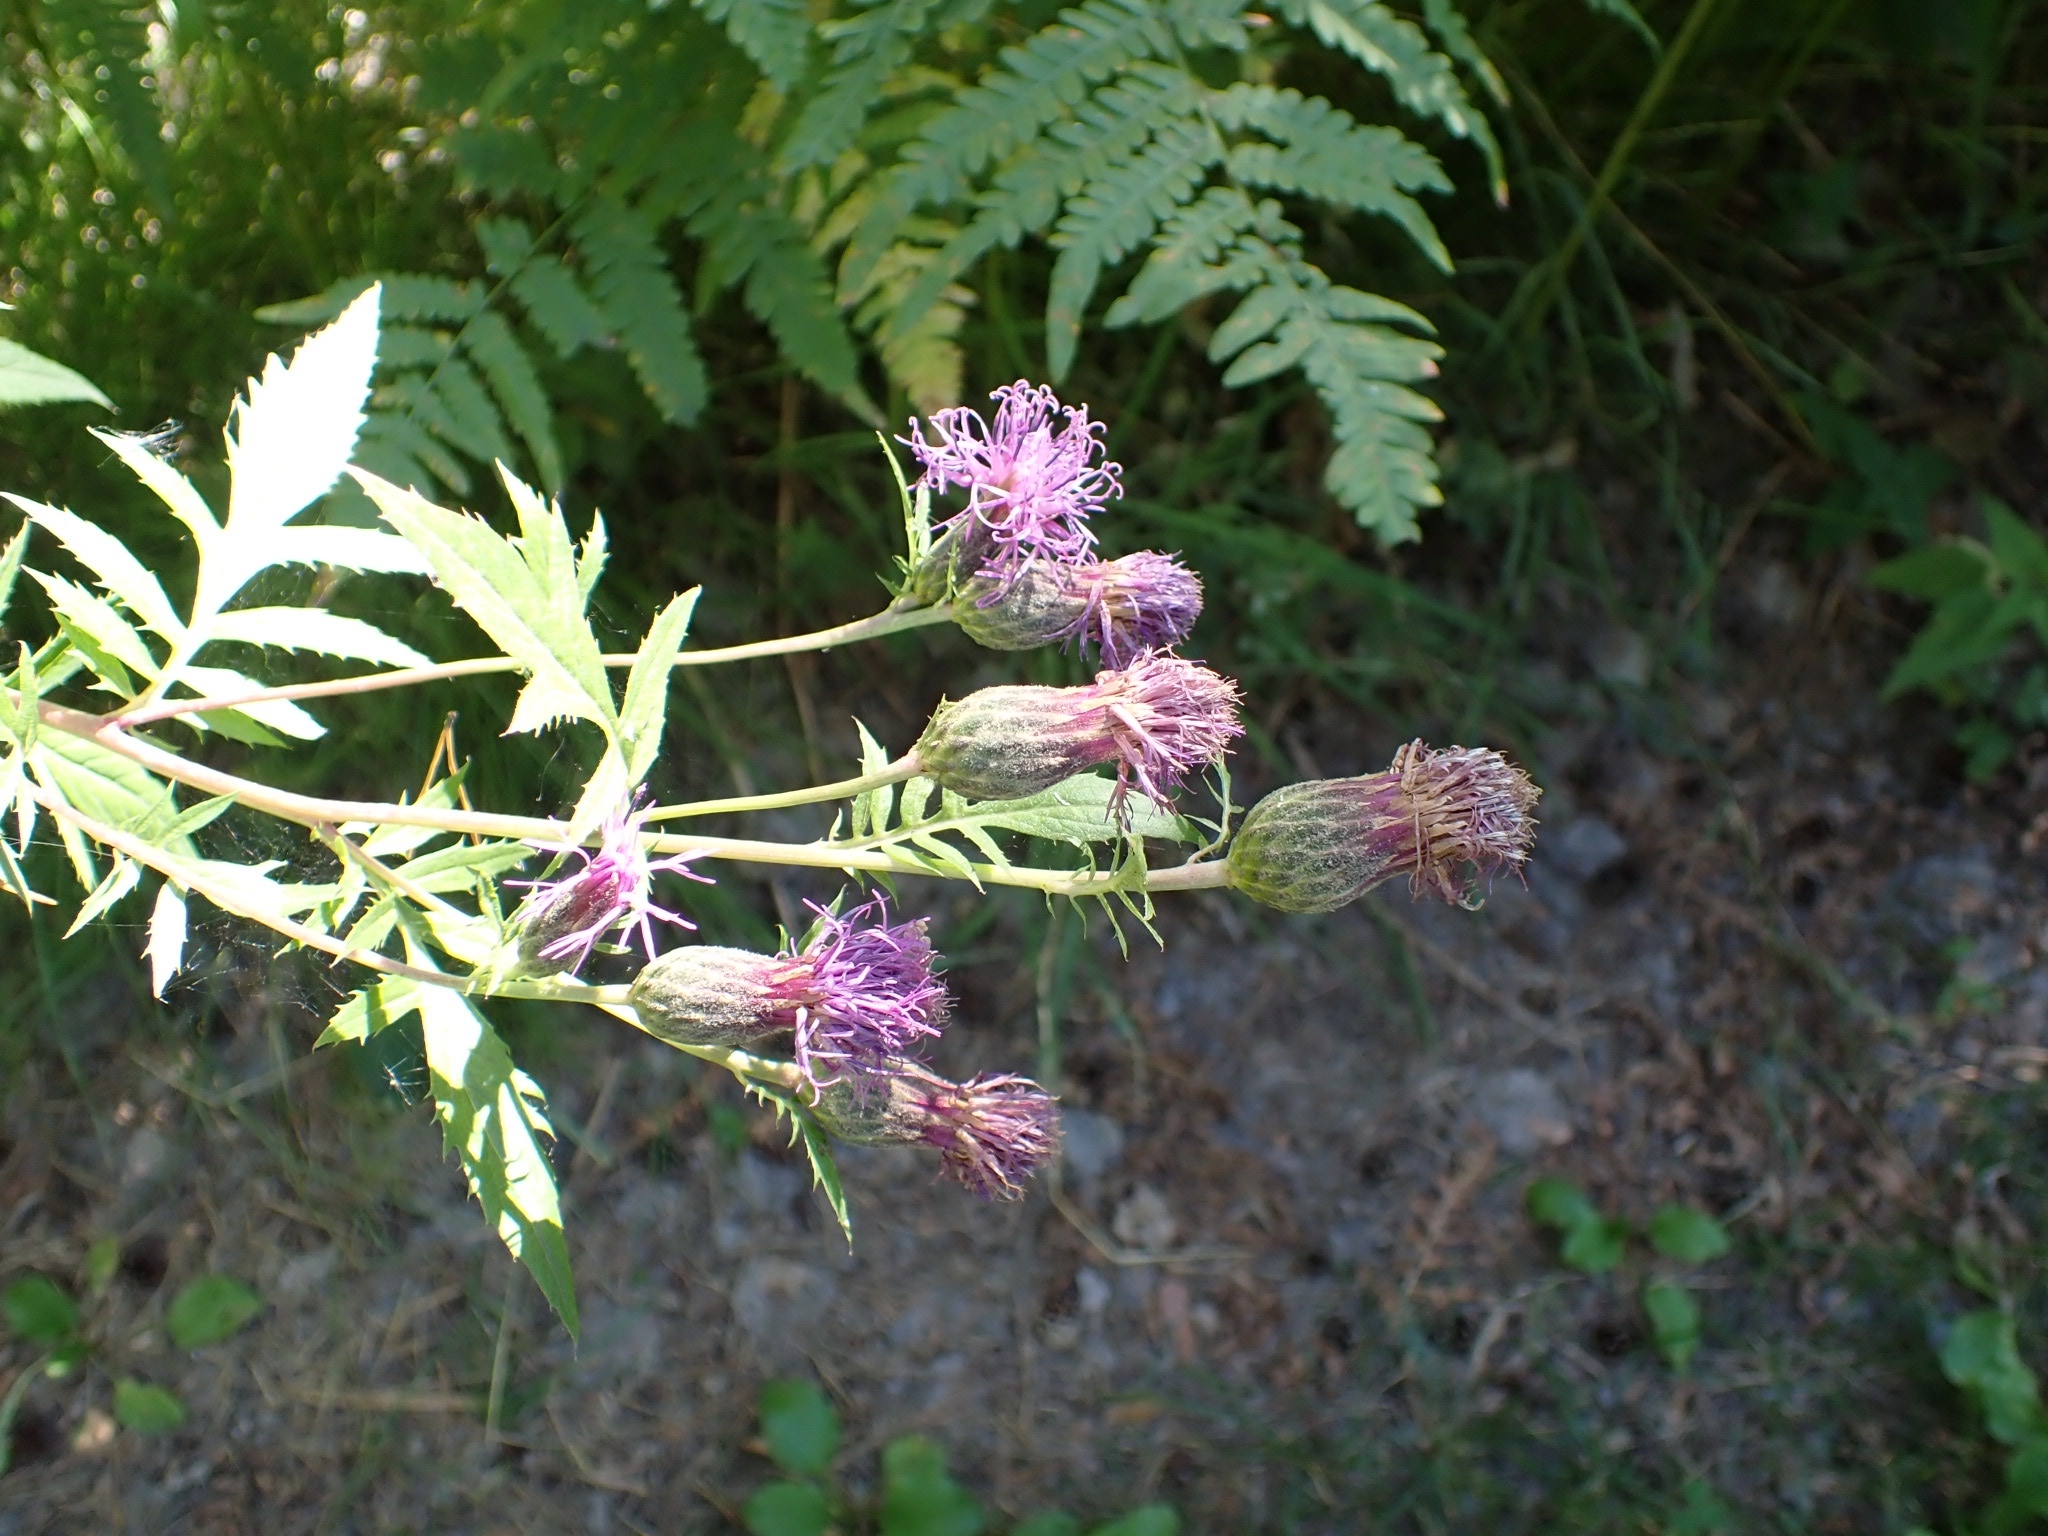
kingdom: Plantae
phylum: Tracheophyta
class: Magnoliopsida
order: Asterales
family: Asteraceae
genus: Serratula
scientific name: Serratula coronata
